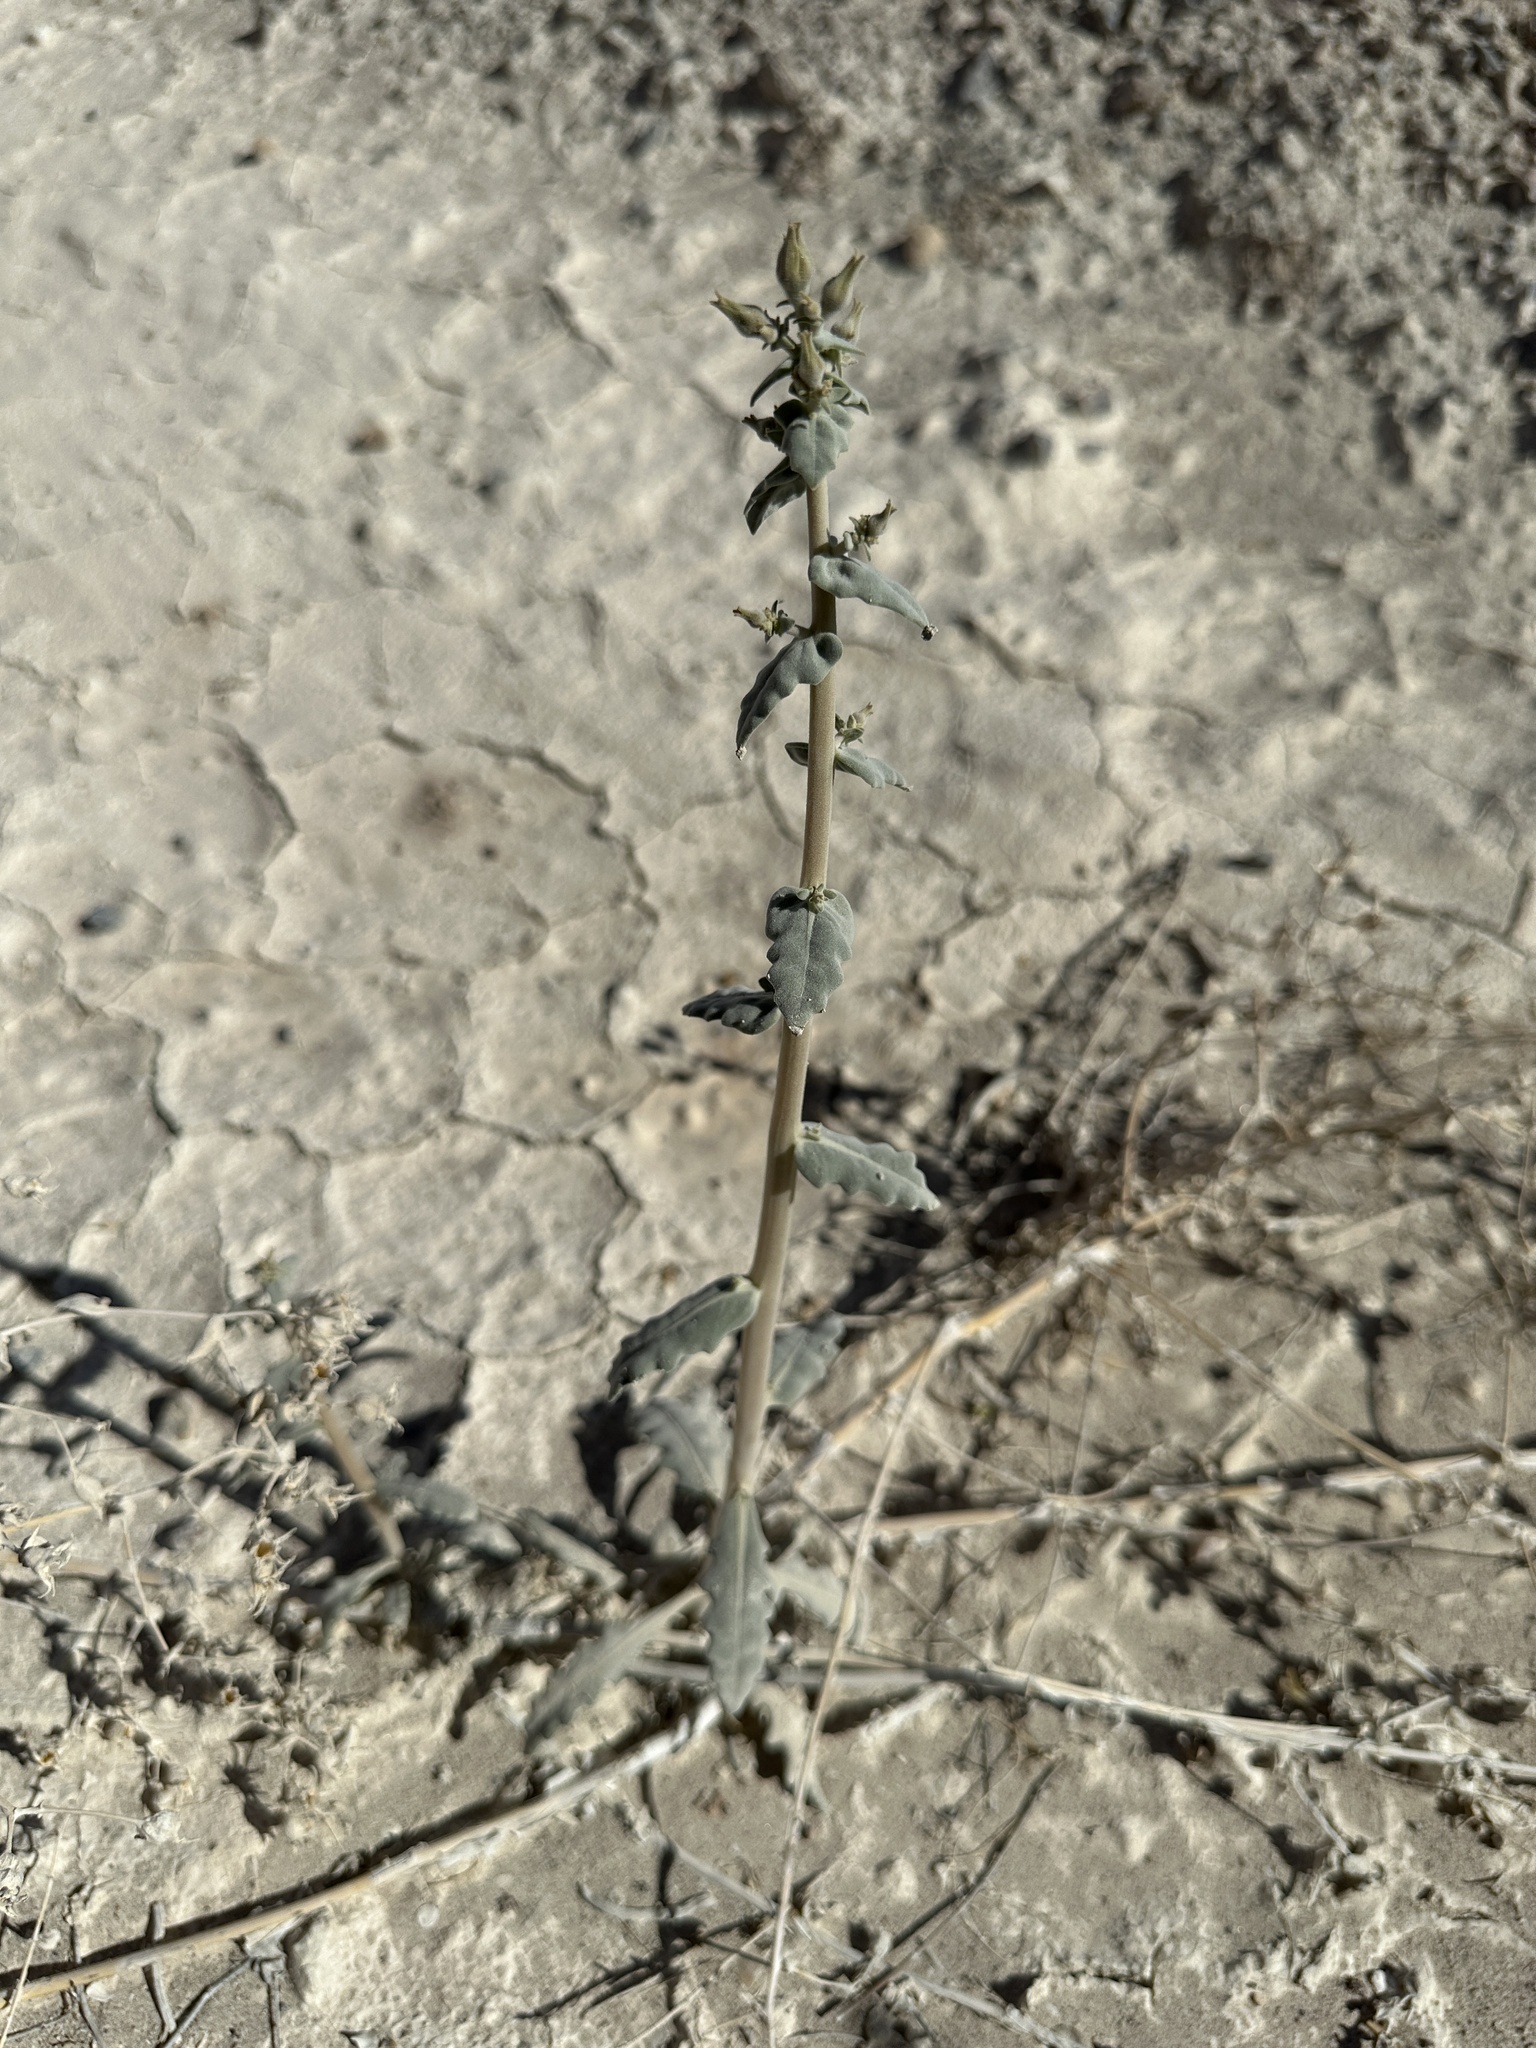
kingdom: Plantae
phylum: Tracheophyta
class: Magnoliopsida
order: Cornales
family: Loasaceae
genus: Mentzelia
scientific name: Mentzelia leucophylla
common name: Ash meadows blazingstar
